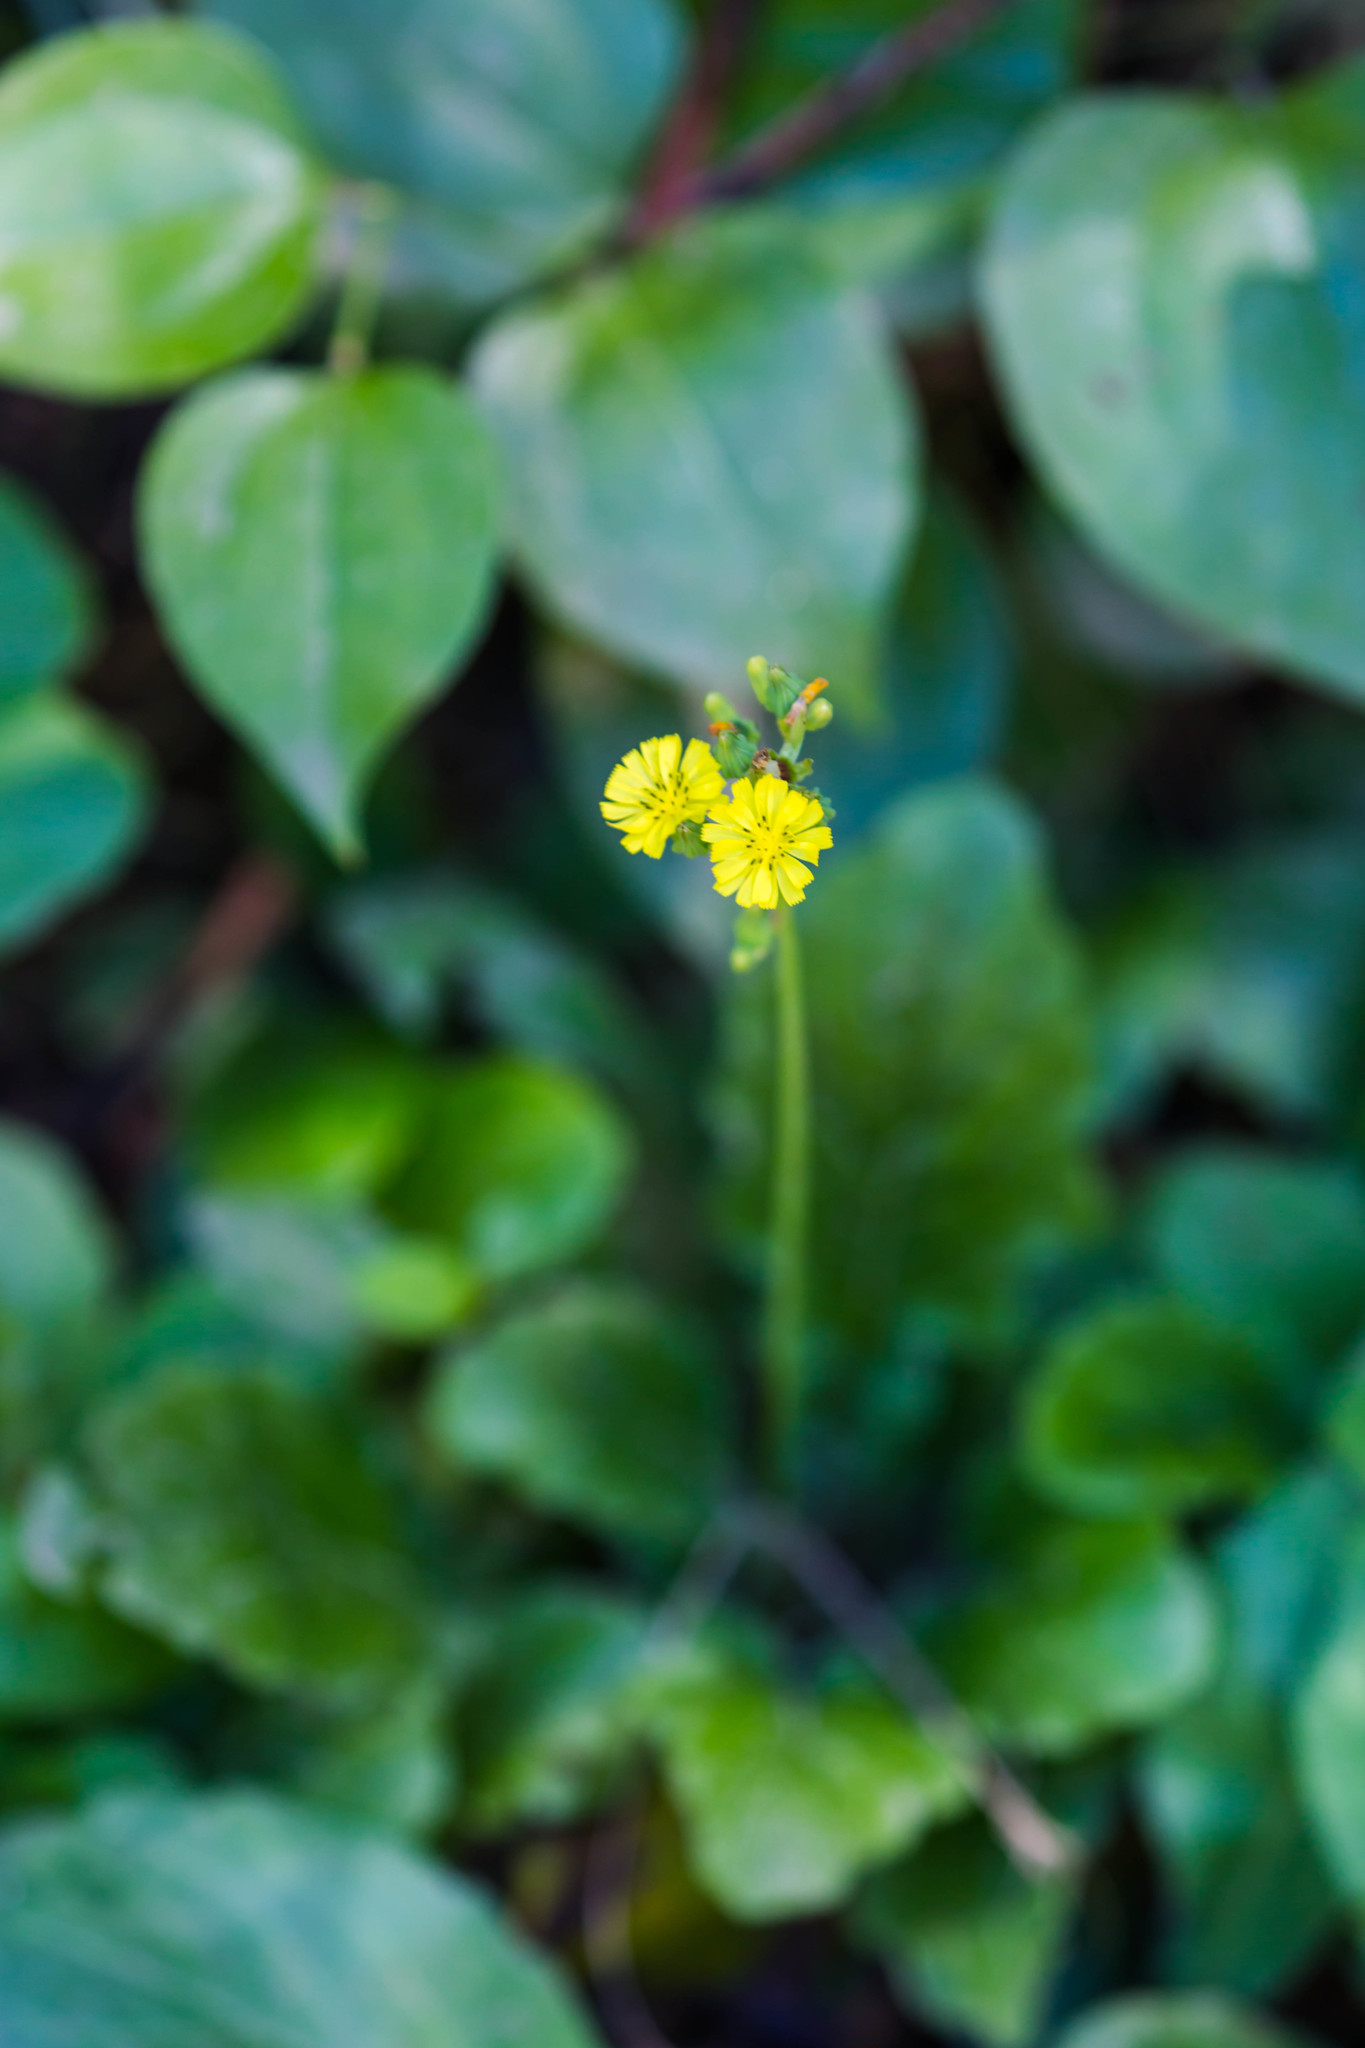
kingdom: Plantae
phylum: Tracheophyta
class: Magnoliopsida
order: Asterales
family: Asteraceae
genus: Youngia
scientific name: Youngia japonica
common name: Oriental false hawksbeard
